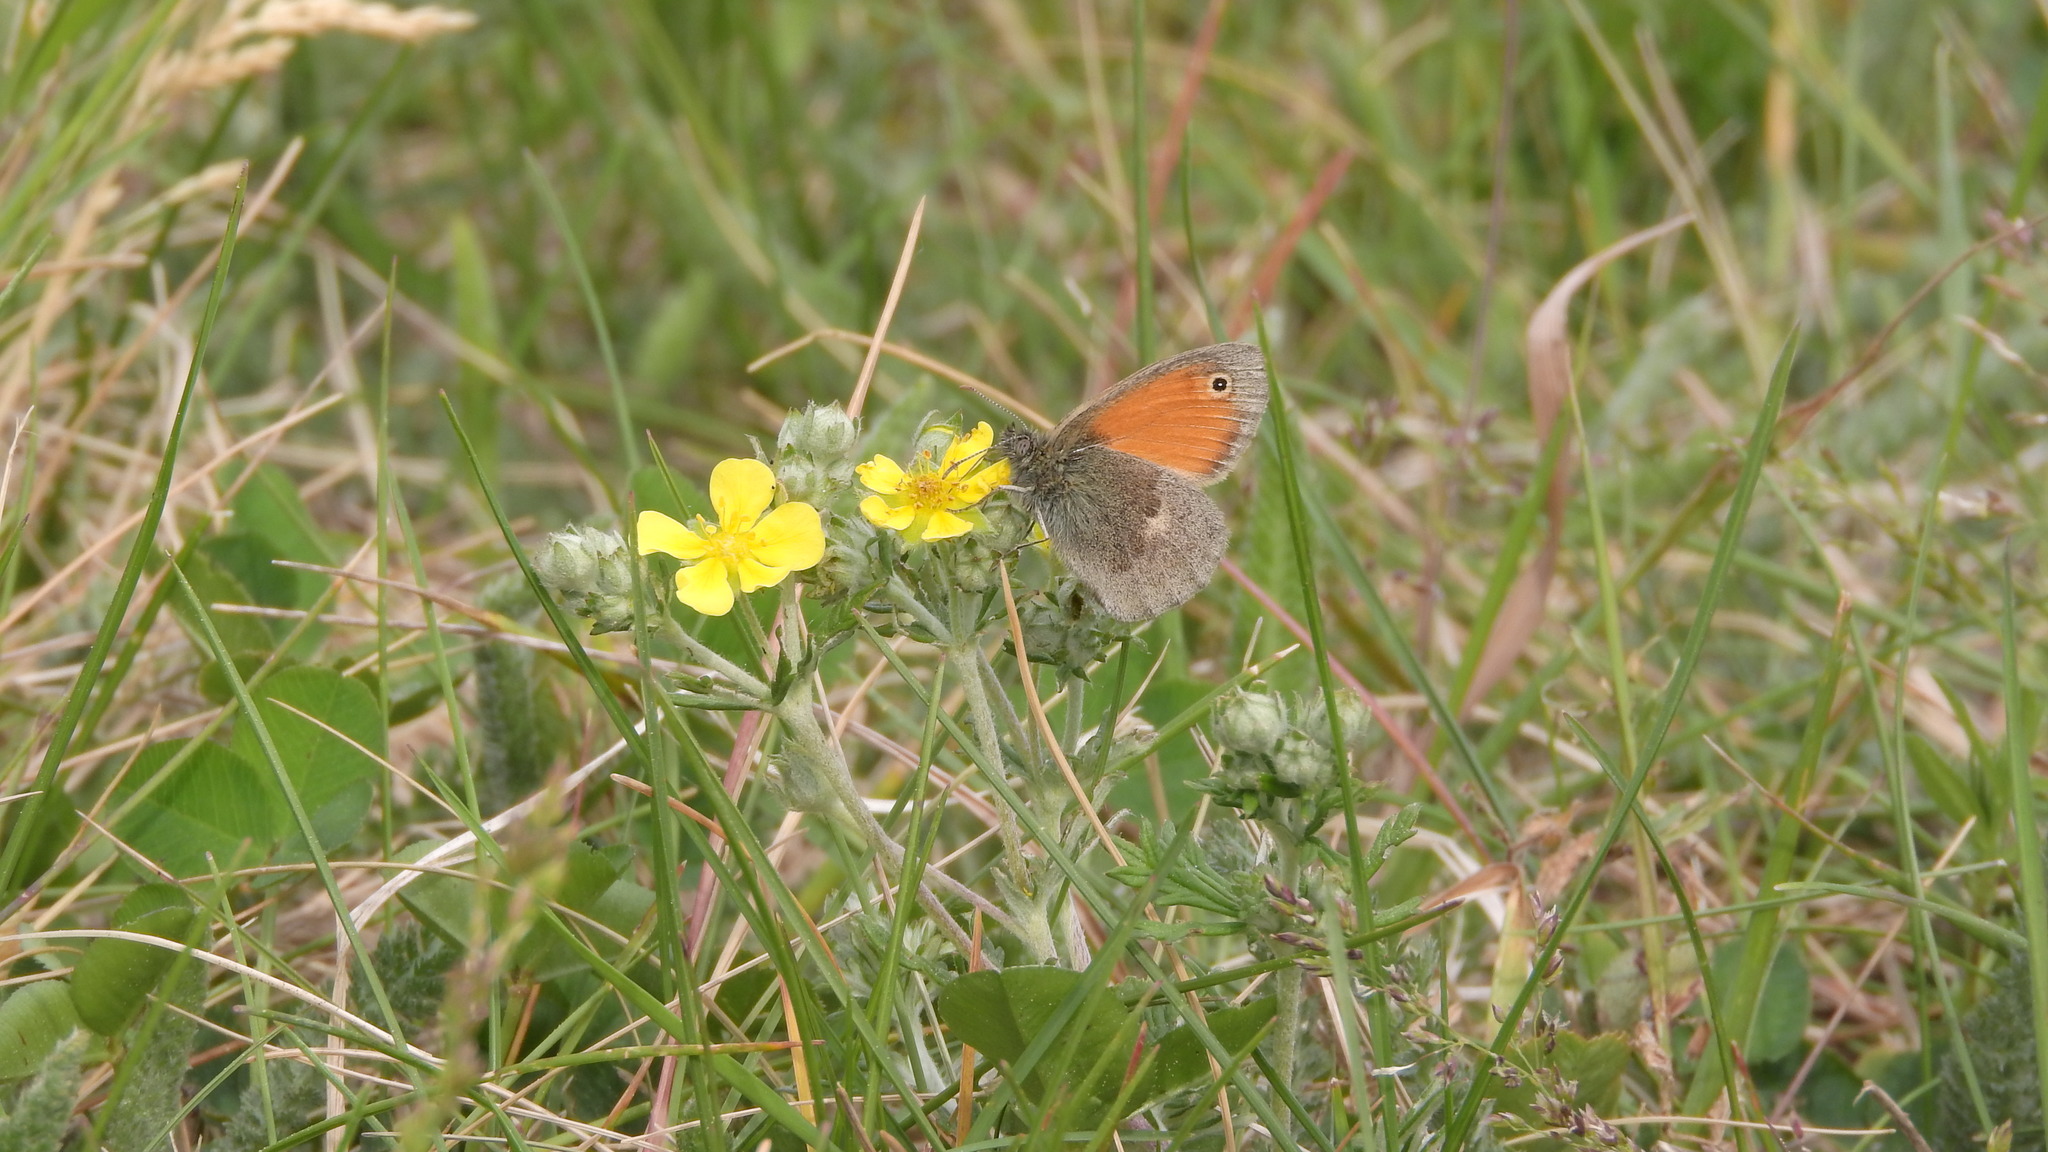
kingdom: Animalia
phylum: Arthropoda
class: Insecta
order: Lepidoptera
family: Nymphalidae
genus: Coenonympha
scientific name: Coenonympha pamphilus
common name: Small heath
